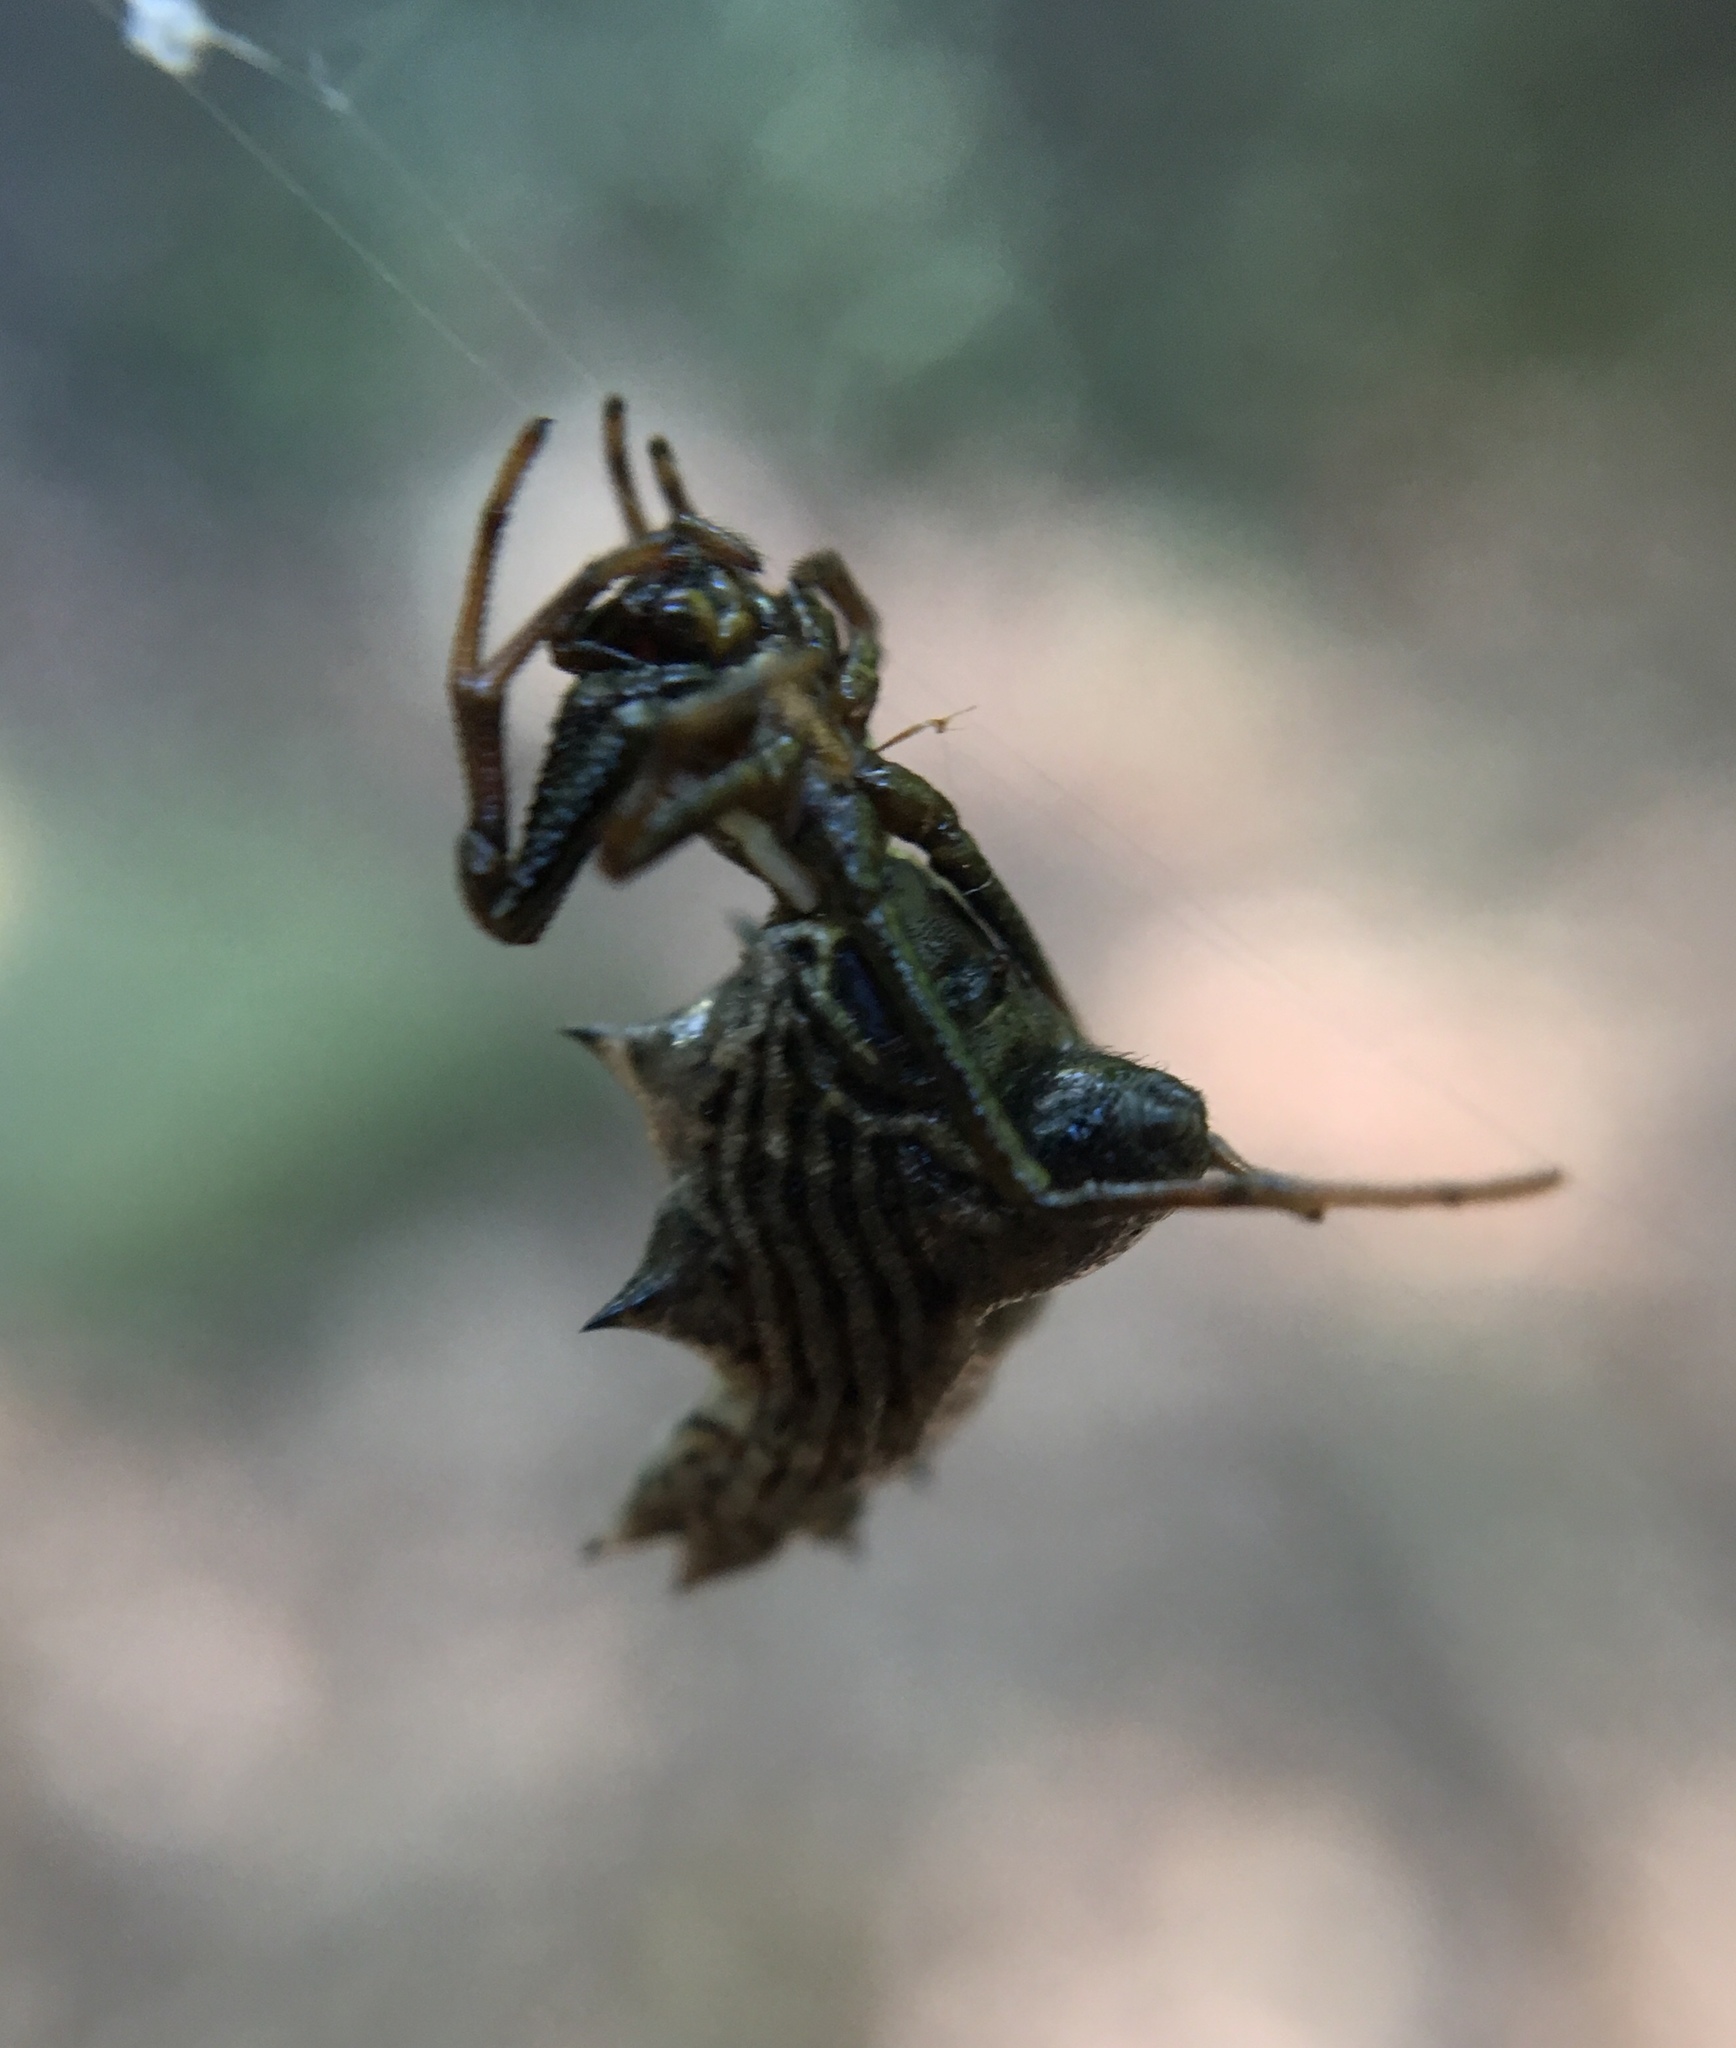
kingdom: Animalia
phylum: Arthropoda
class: Arachnida
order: Araneae
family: Araneidae
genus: Micrathena
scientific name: Micrathena gracilis
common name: Orb weavers
